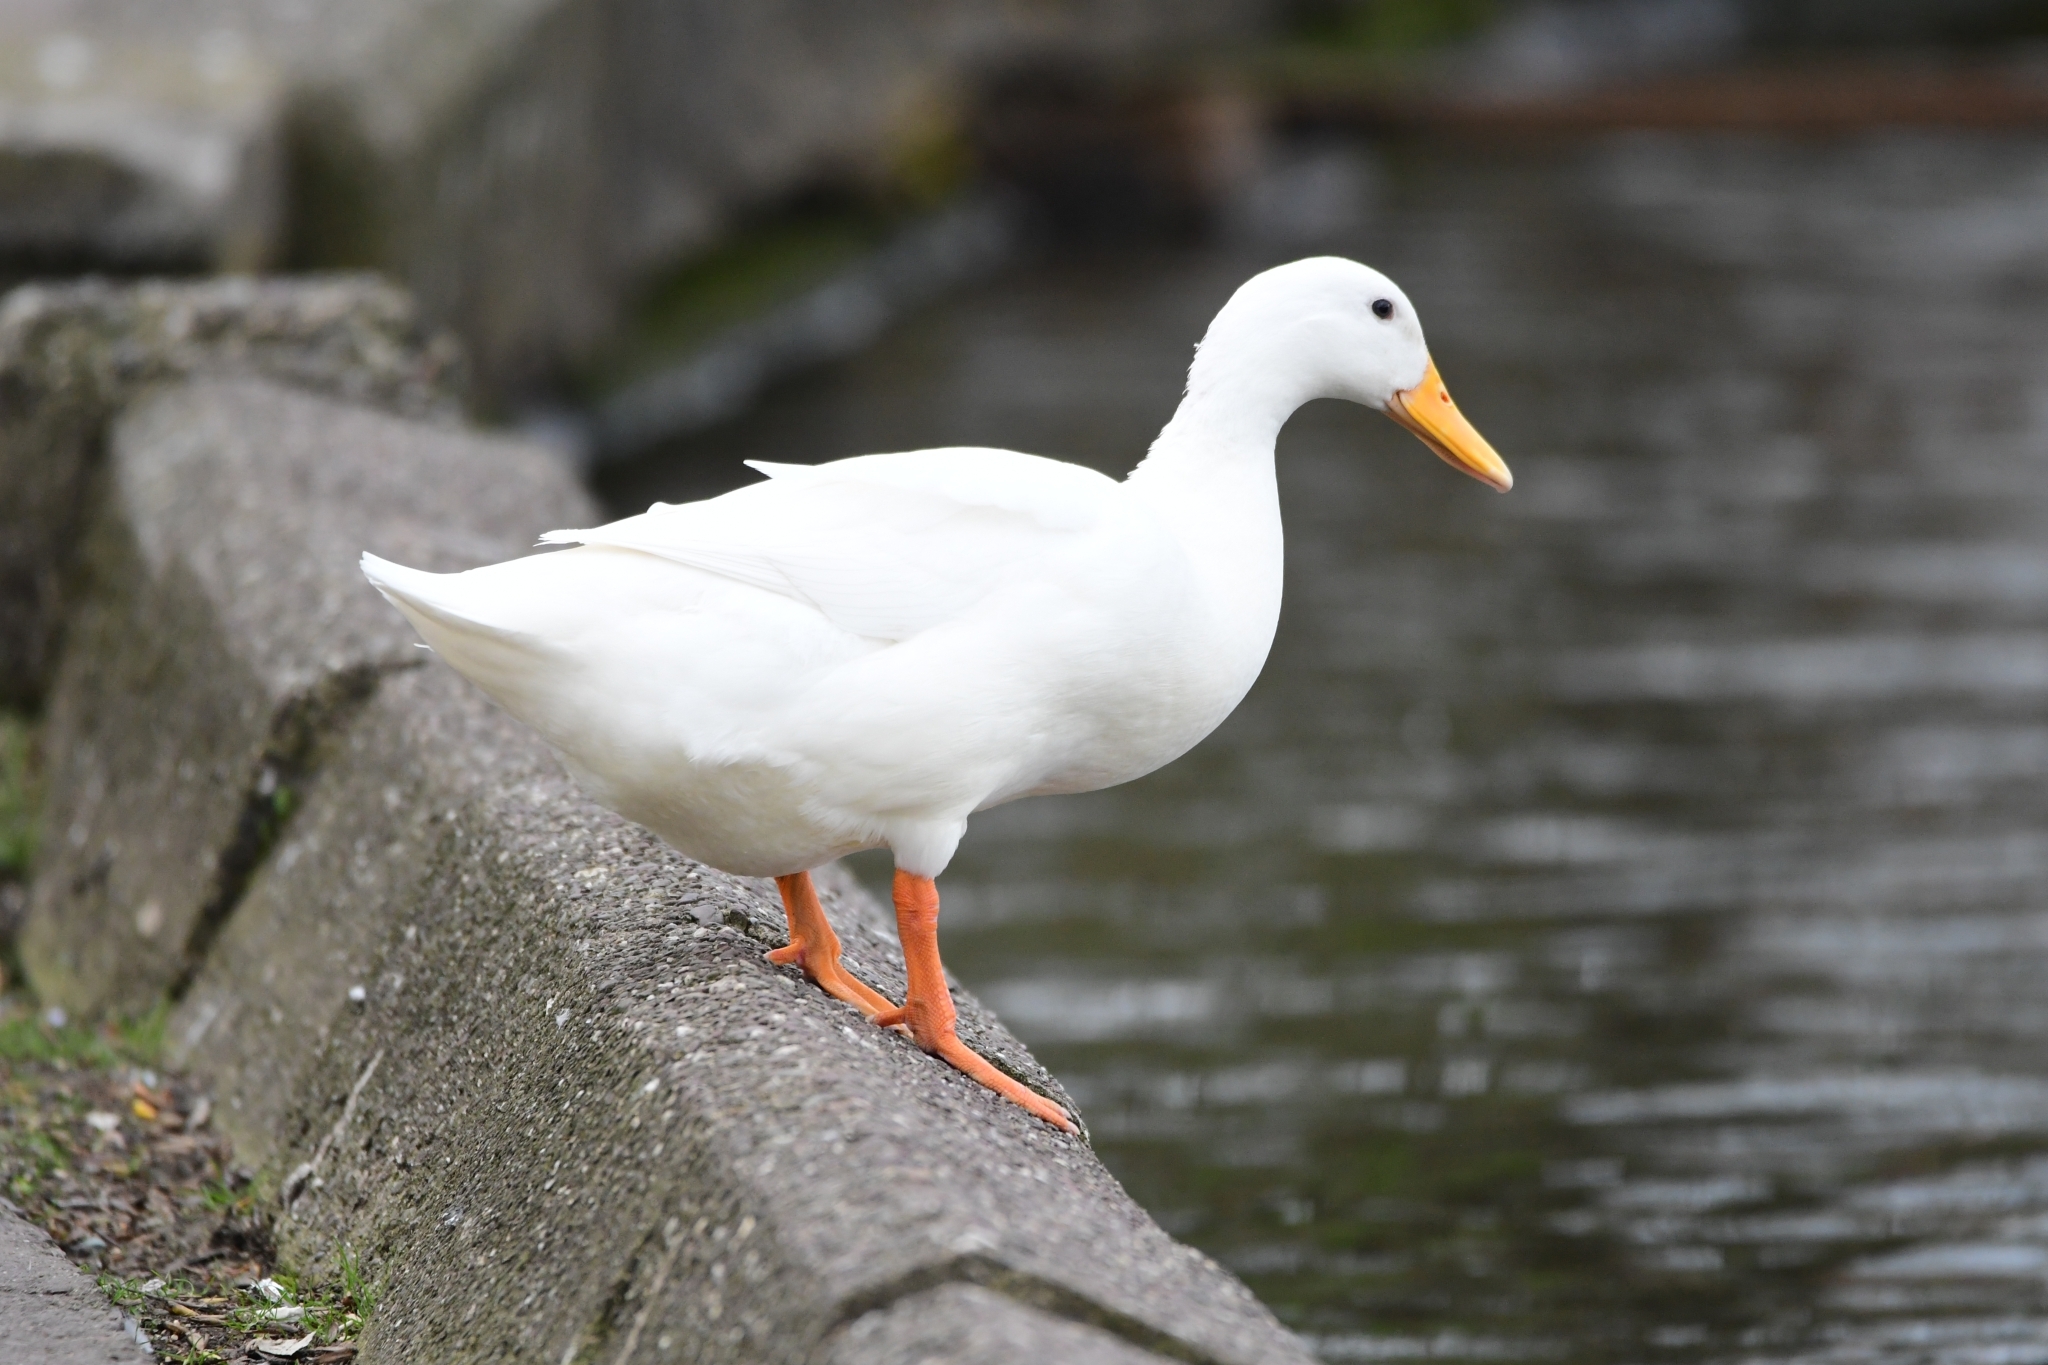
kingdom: Animalia
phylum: Chordata
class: Aves
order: Anseriformes
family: Anatidae
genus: Anas
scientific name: Anas platyrhynchos
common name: Mallard
